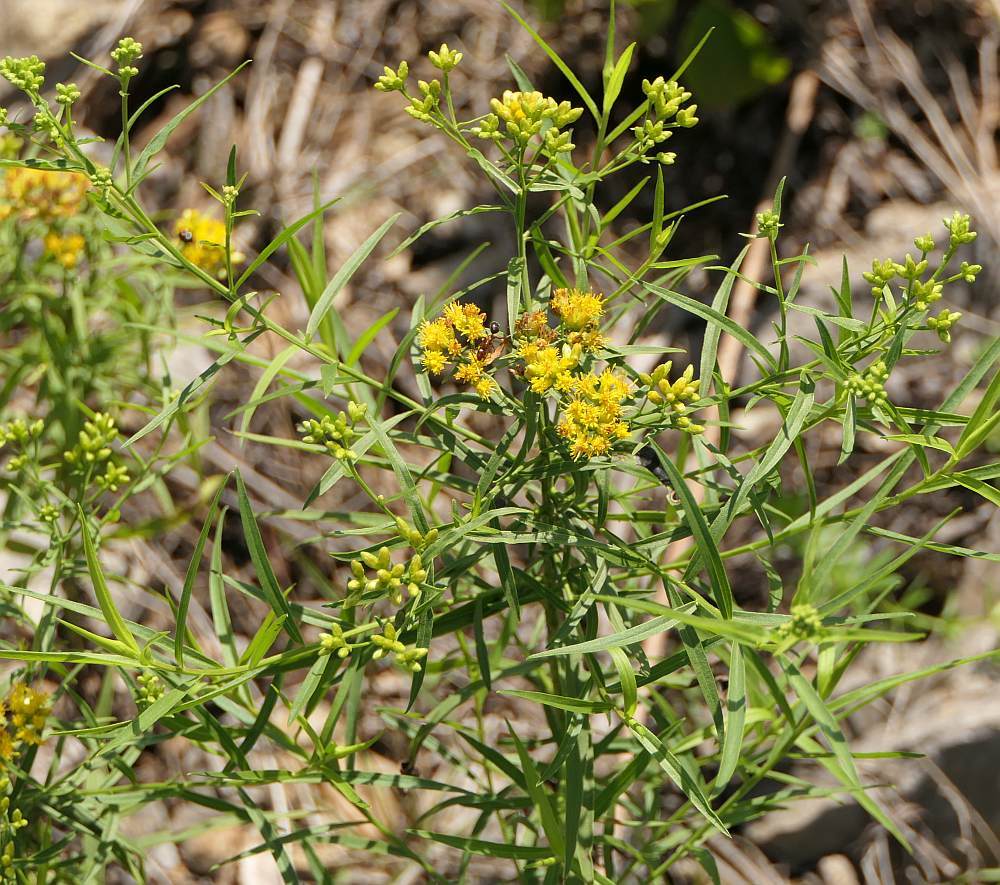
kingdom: Plantae
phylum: Tracheophyta
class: Magnoliopsida
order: Asterales
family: Asteraceae
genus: Euthamia
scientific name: Euthamia graminifolia
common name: Common goldentop
